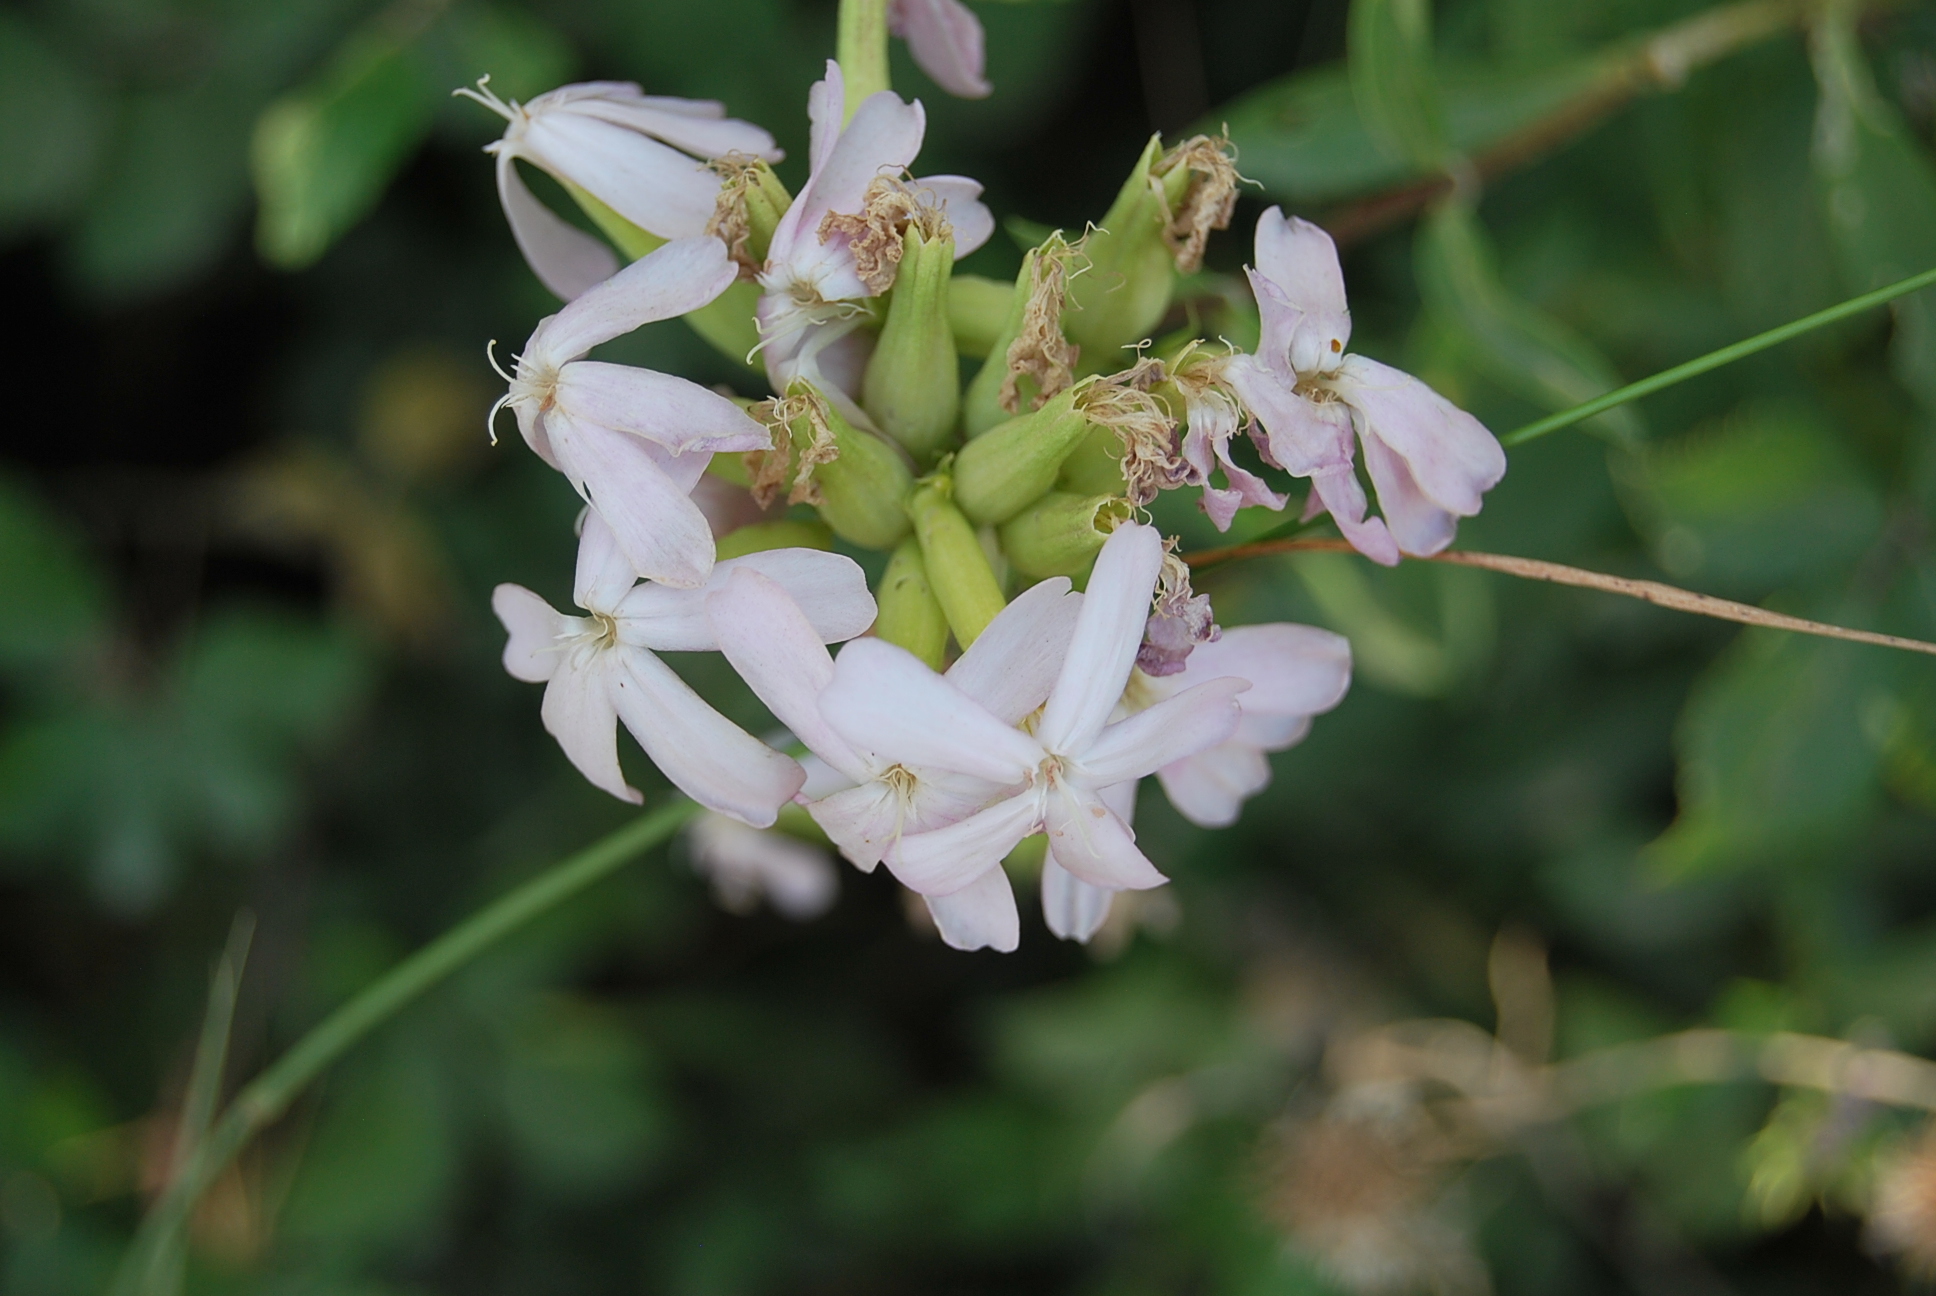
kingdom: Plantae
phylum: Tracheophyta
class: Magnoliopsida
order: Caryophyllales
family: Caryophyllaceae
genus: Saponaria
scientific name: Saponaria officinalis
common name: Soapwort
